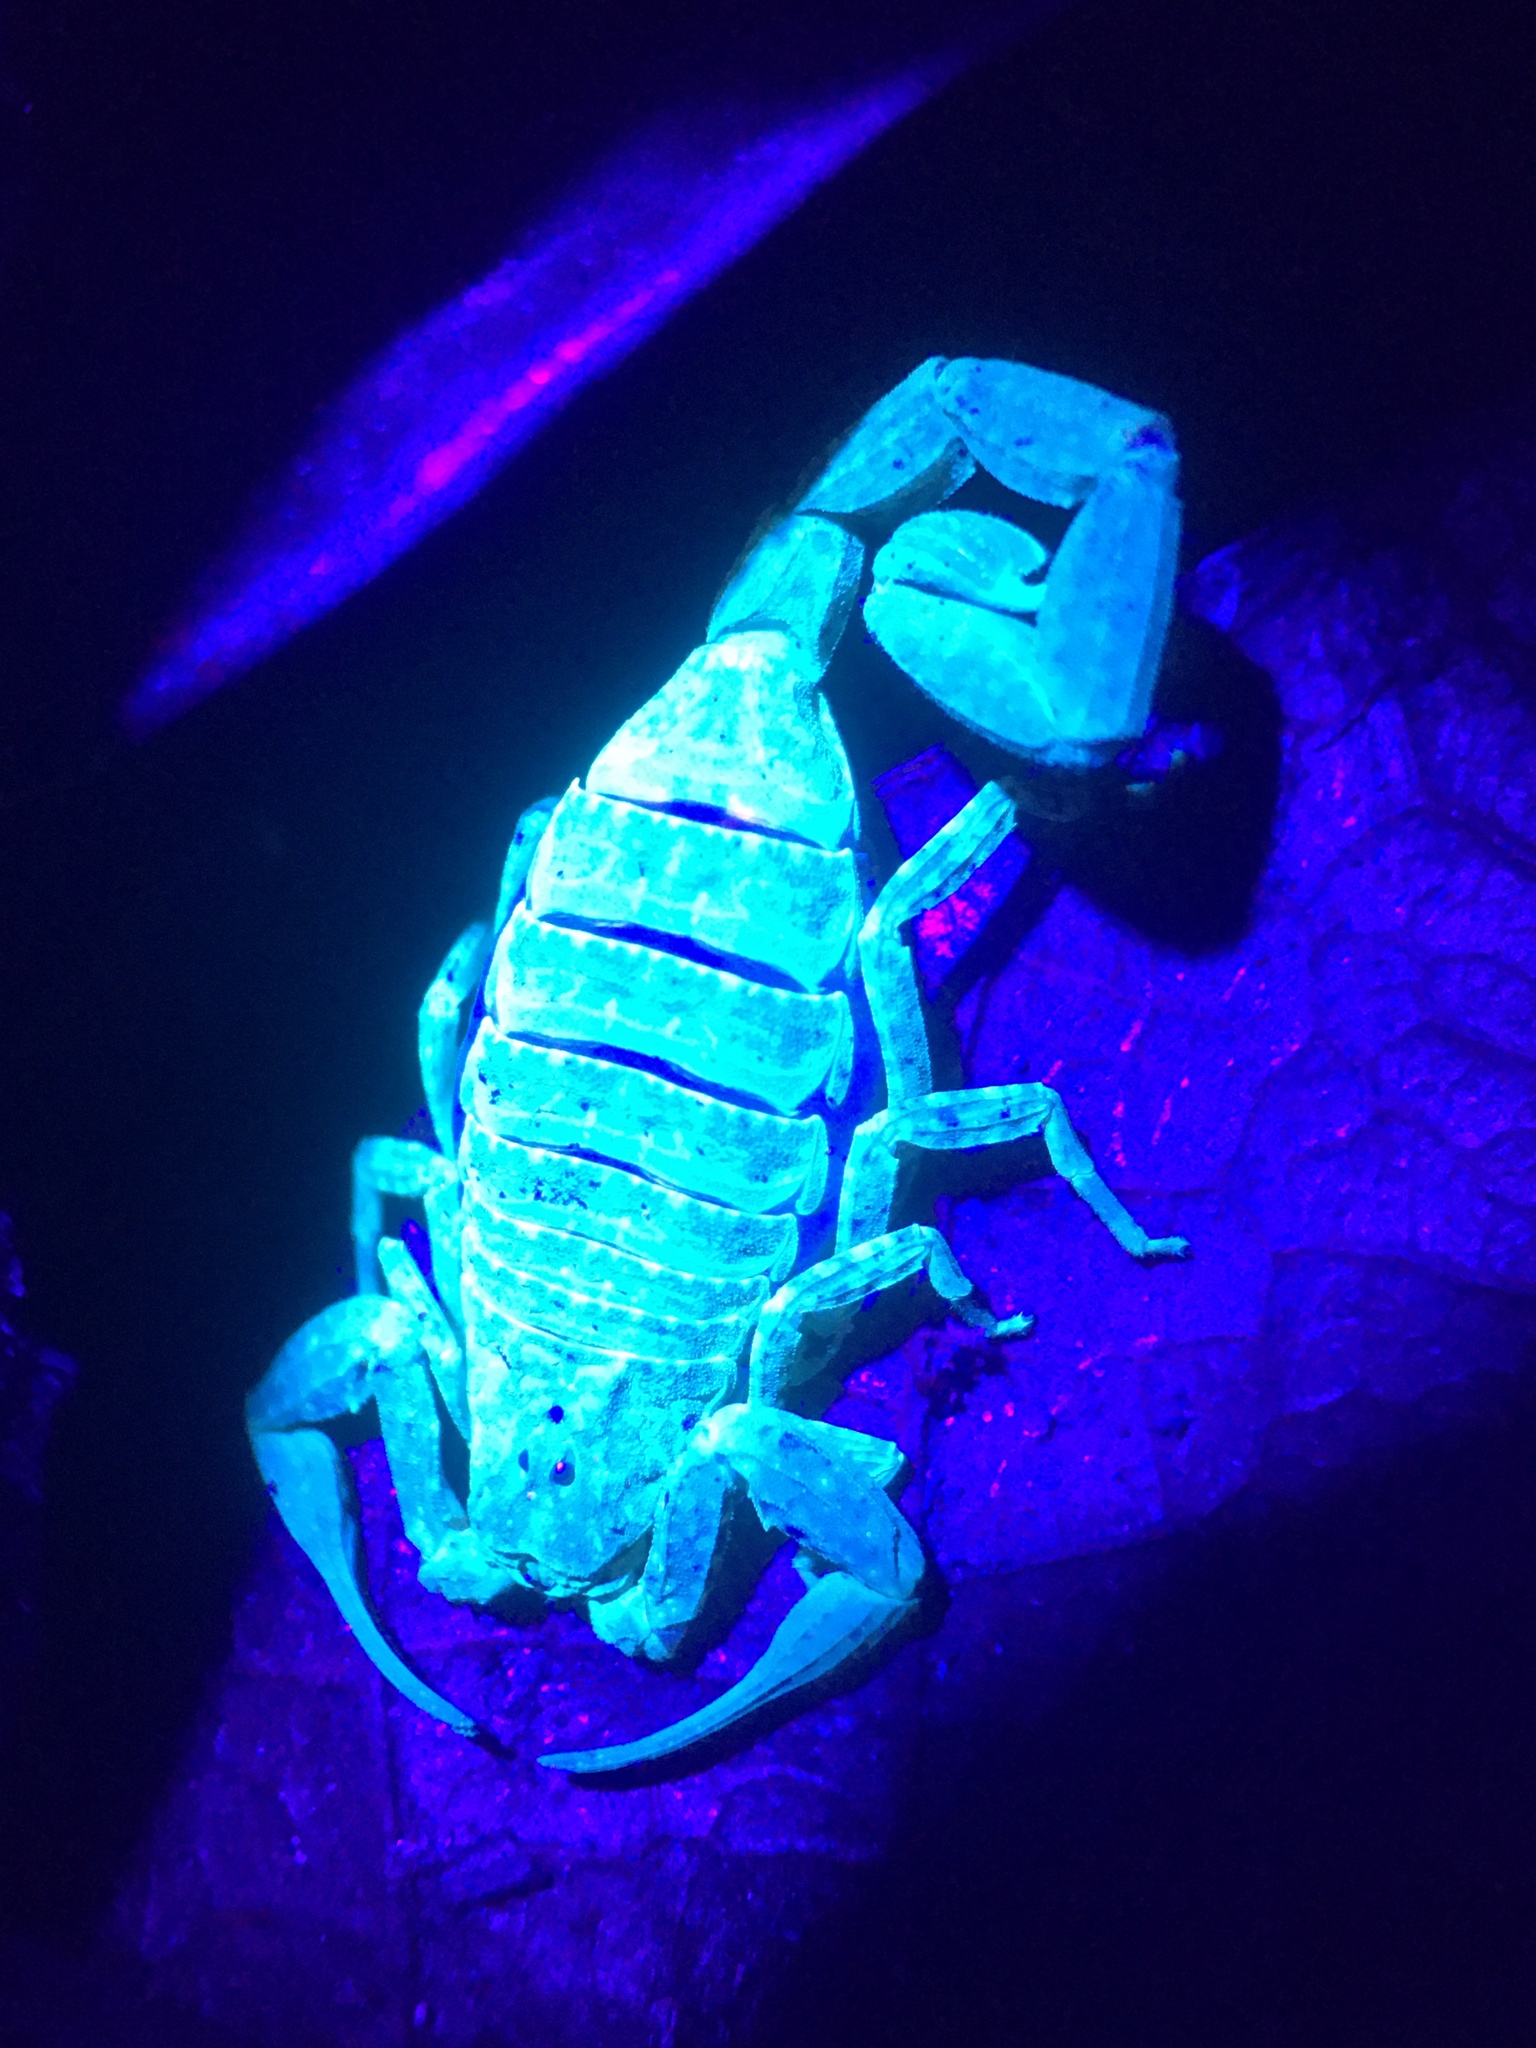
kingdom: Animalia
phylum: Arthropoda
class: Arachnida
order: Scorpiones
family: Buthidae
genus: Tityus
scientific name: Tityus pusillus
